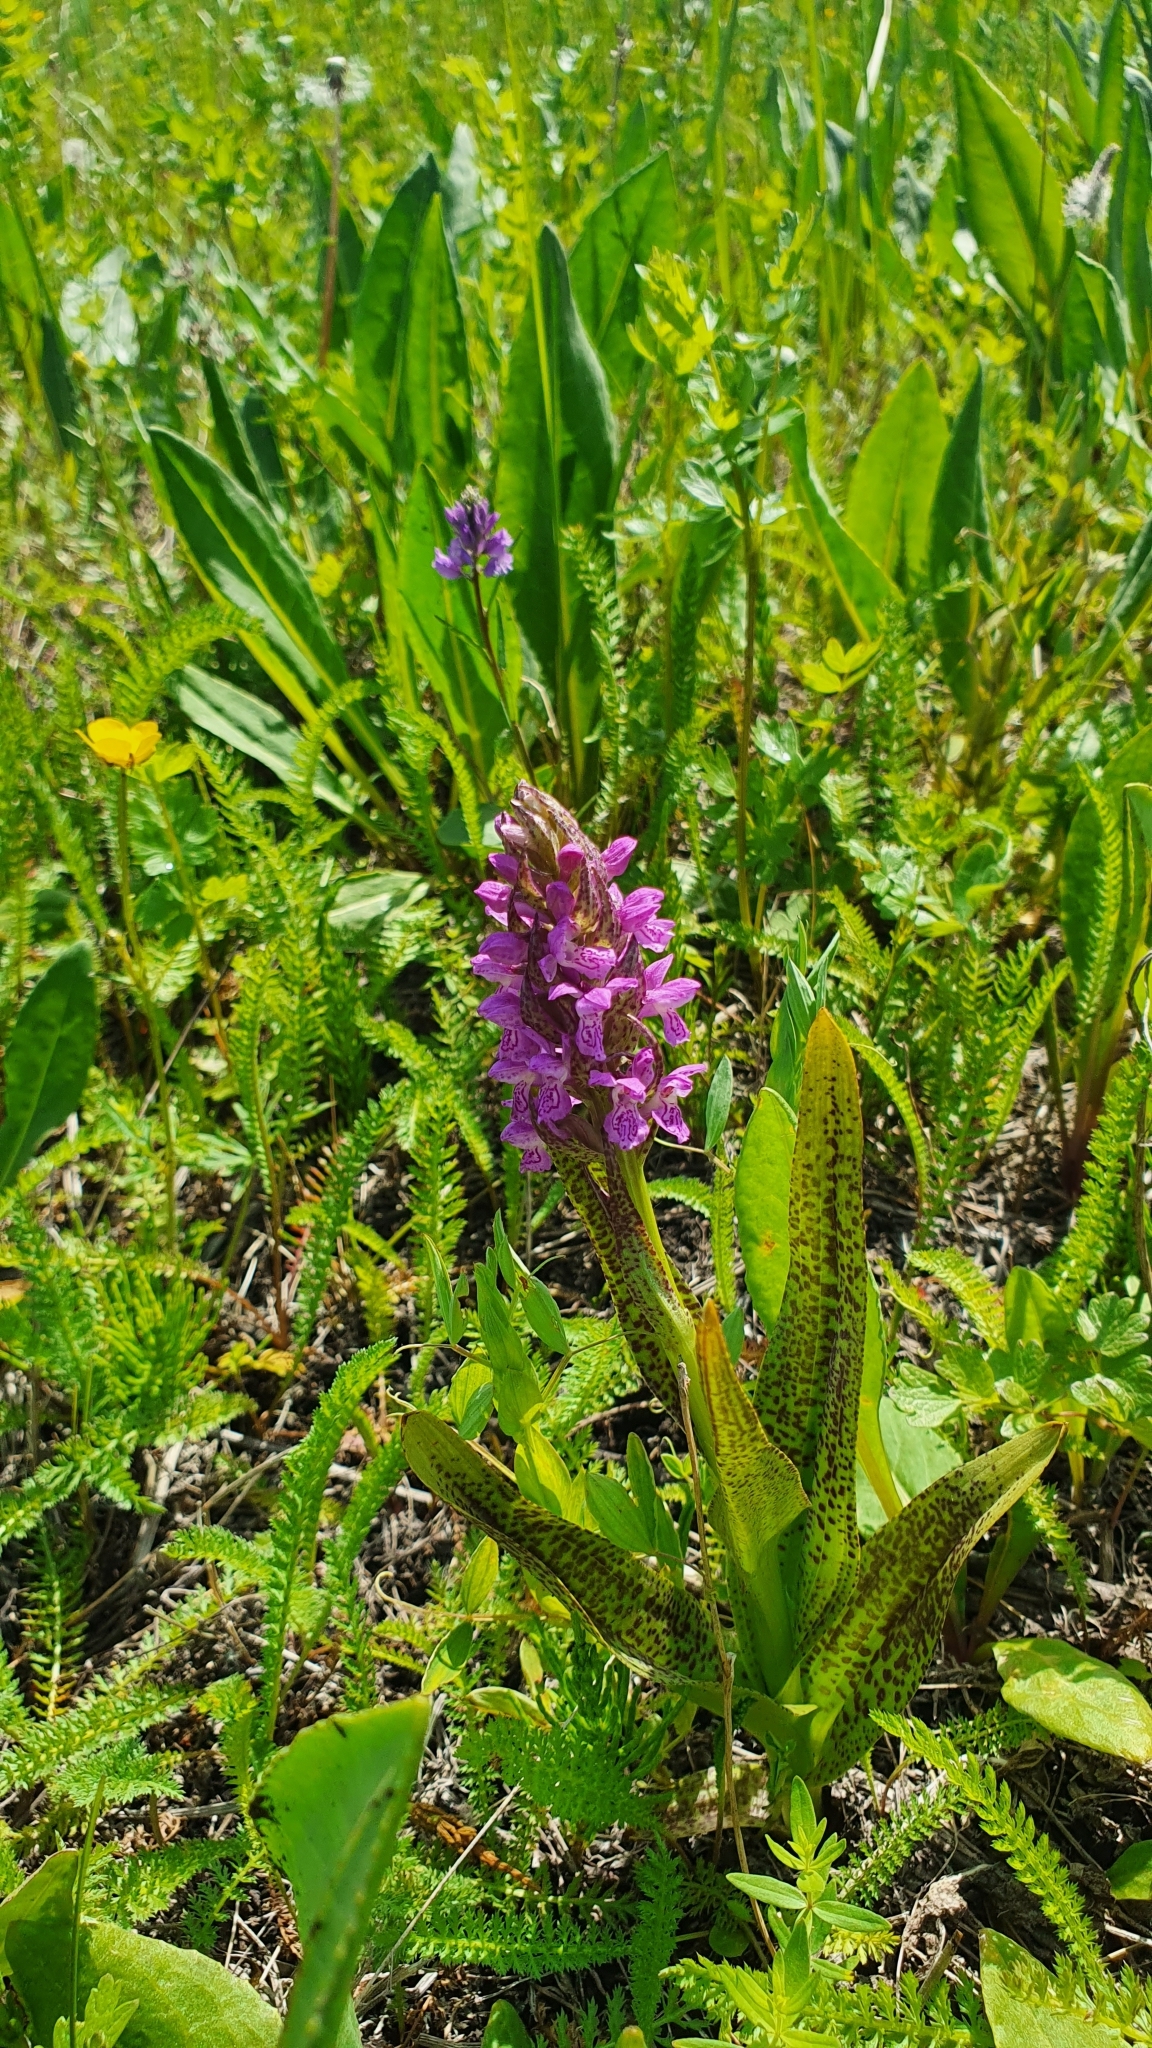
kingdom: Plantae
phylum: Tracheophyta
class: Liliopsida
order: Asparagales
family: Orchidaceae
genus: Dactylorhiza
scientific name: Dactylorhiza incarnata
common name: Early marsh-orchid
